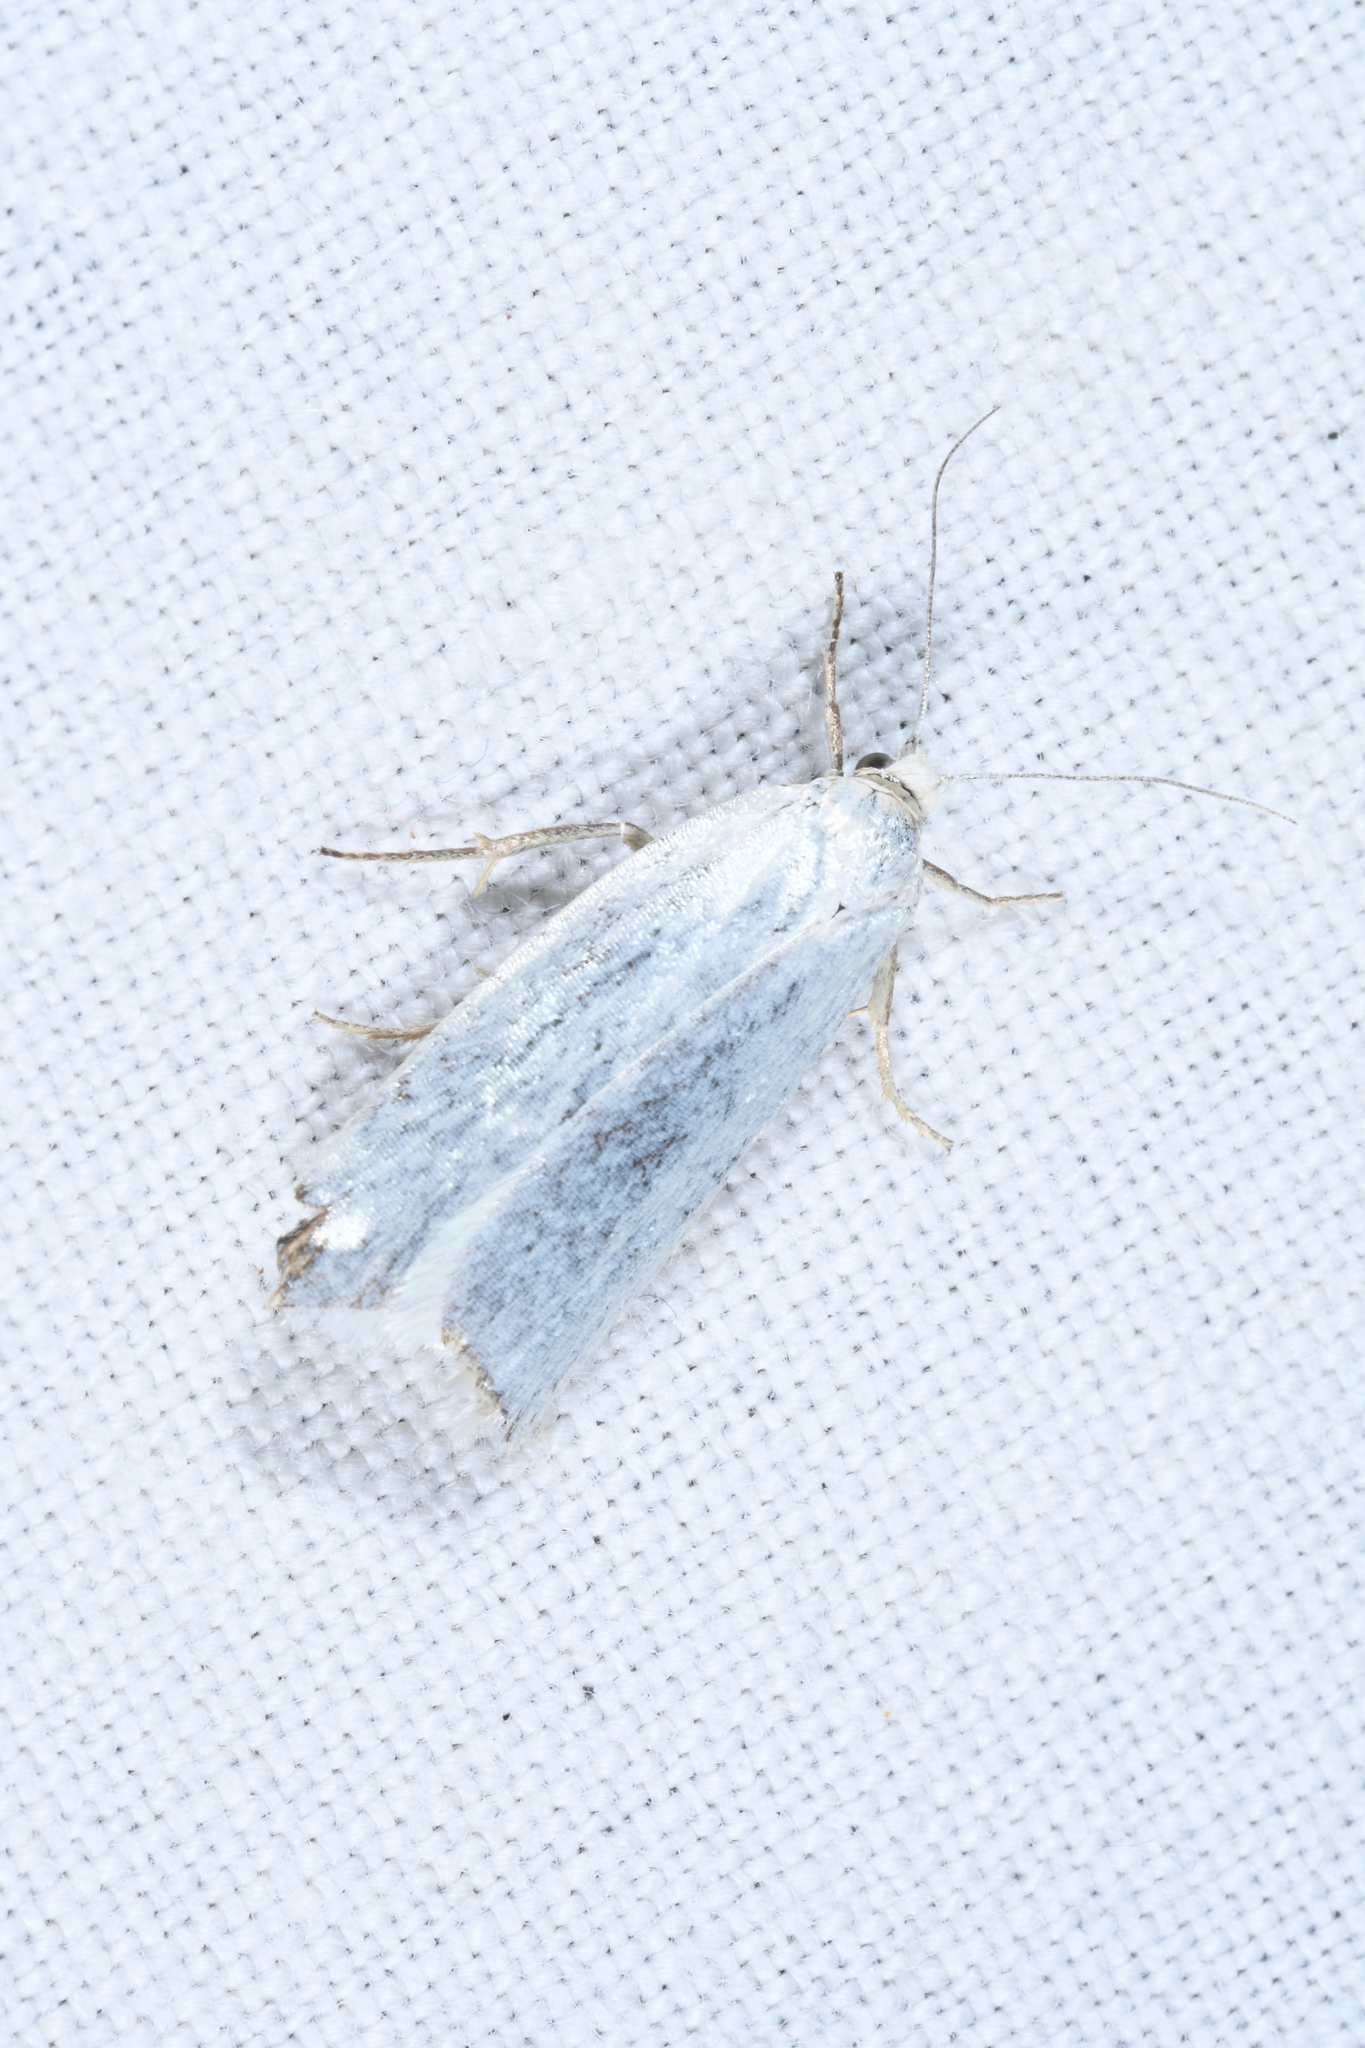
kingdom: Animalia
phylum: Arthropoda
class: Insecta
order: Lepidoptera
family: Tortricidae
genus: Eana
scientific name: Eana argentana
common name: Silver shade
